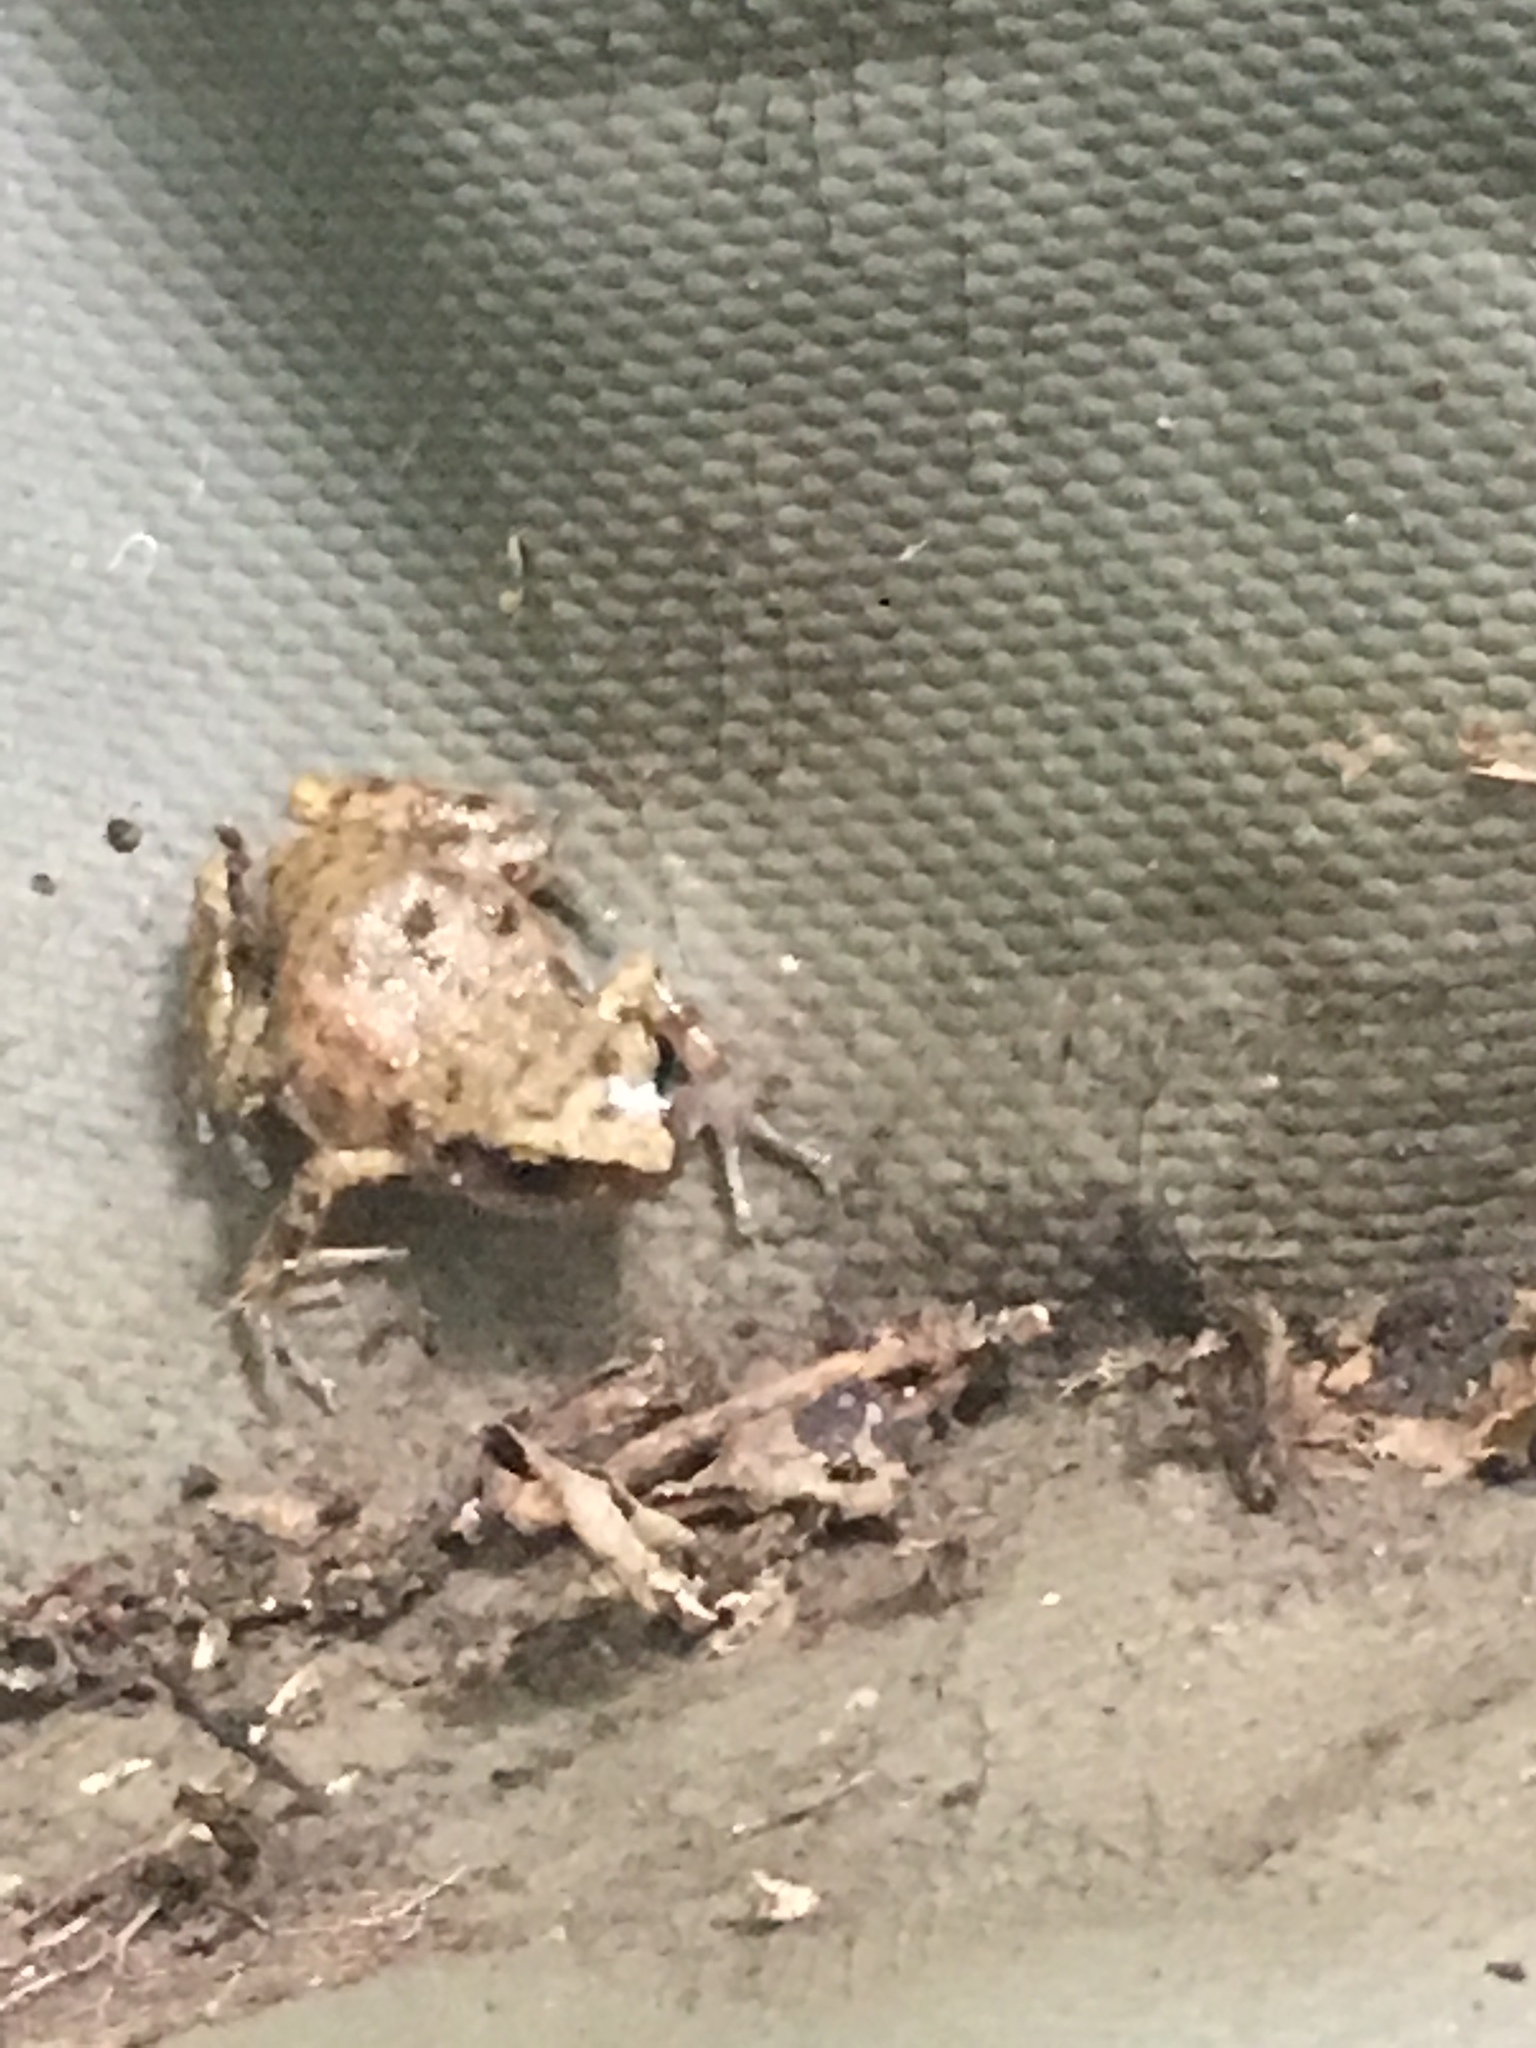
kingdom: Animalia
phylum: Chordata
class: Amphibia
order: Anura
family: Eleutherodactylidae
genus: Eleutherodactylus
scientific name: Eleutherodactylus campi
